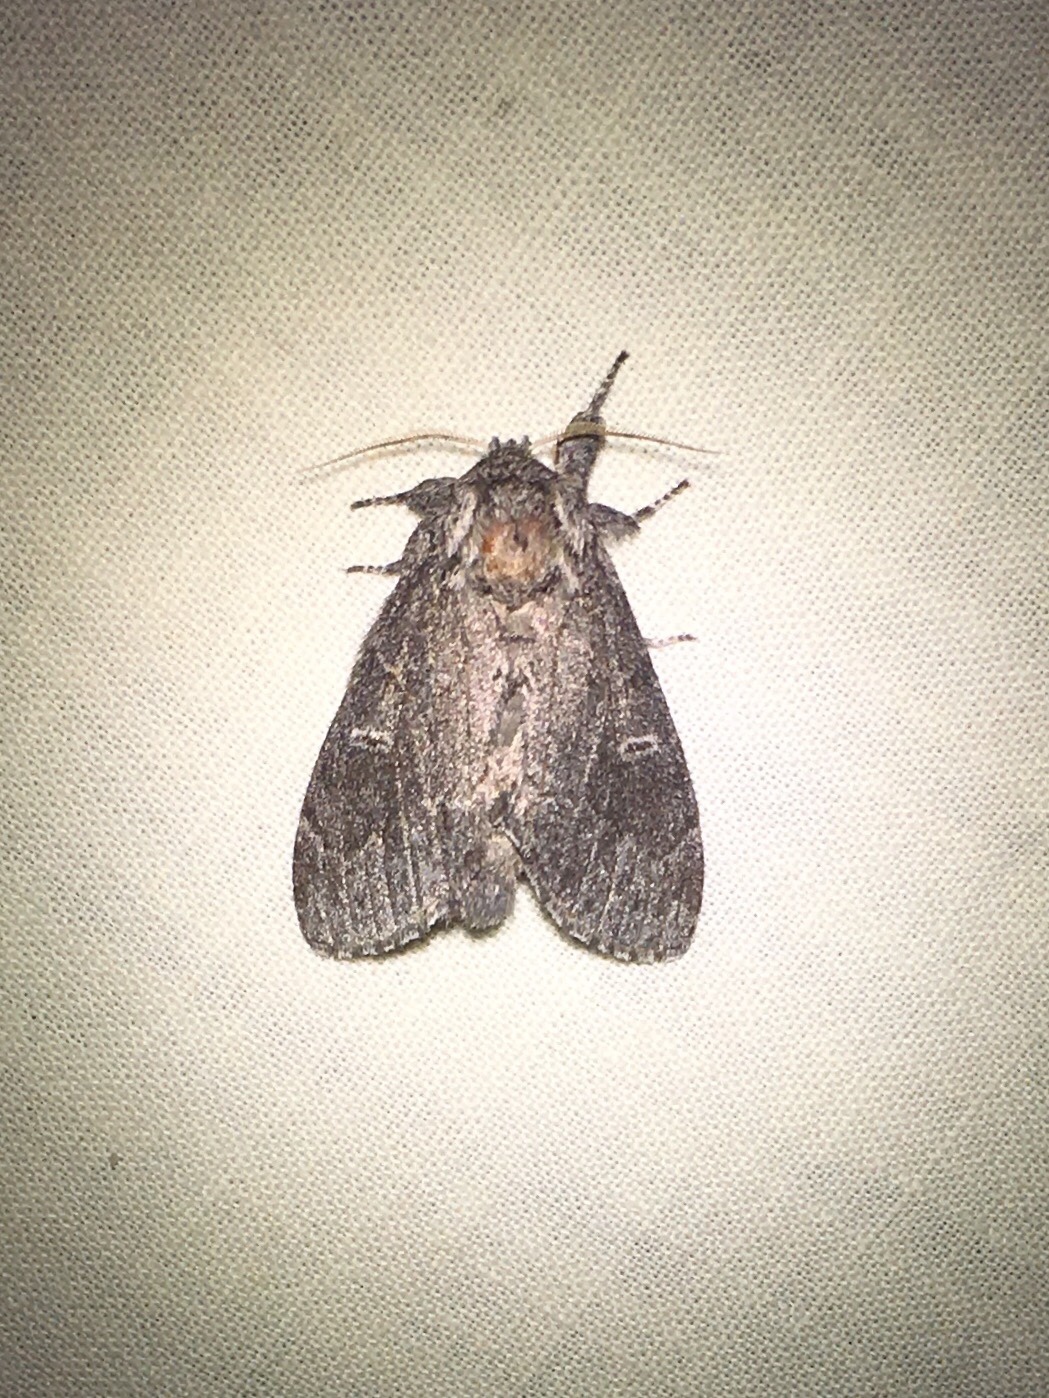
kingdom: Animalia
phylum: Arthropoda
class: Insecta
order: Lepidoptera
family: Notodontidae
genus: Notodonta
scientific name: Notodonta torva
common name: Large dark prominent
